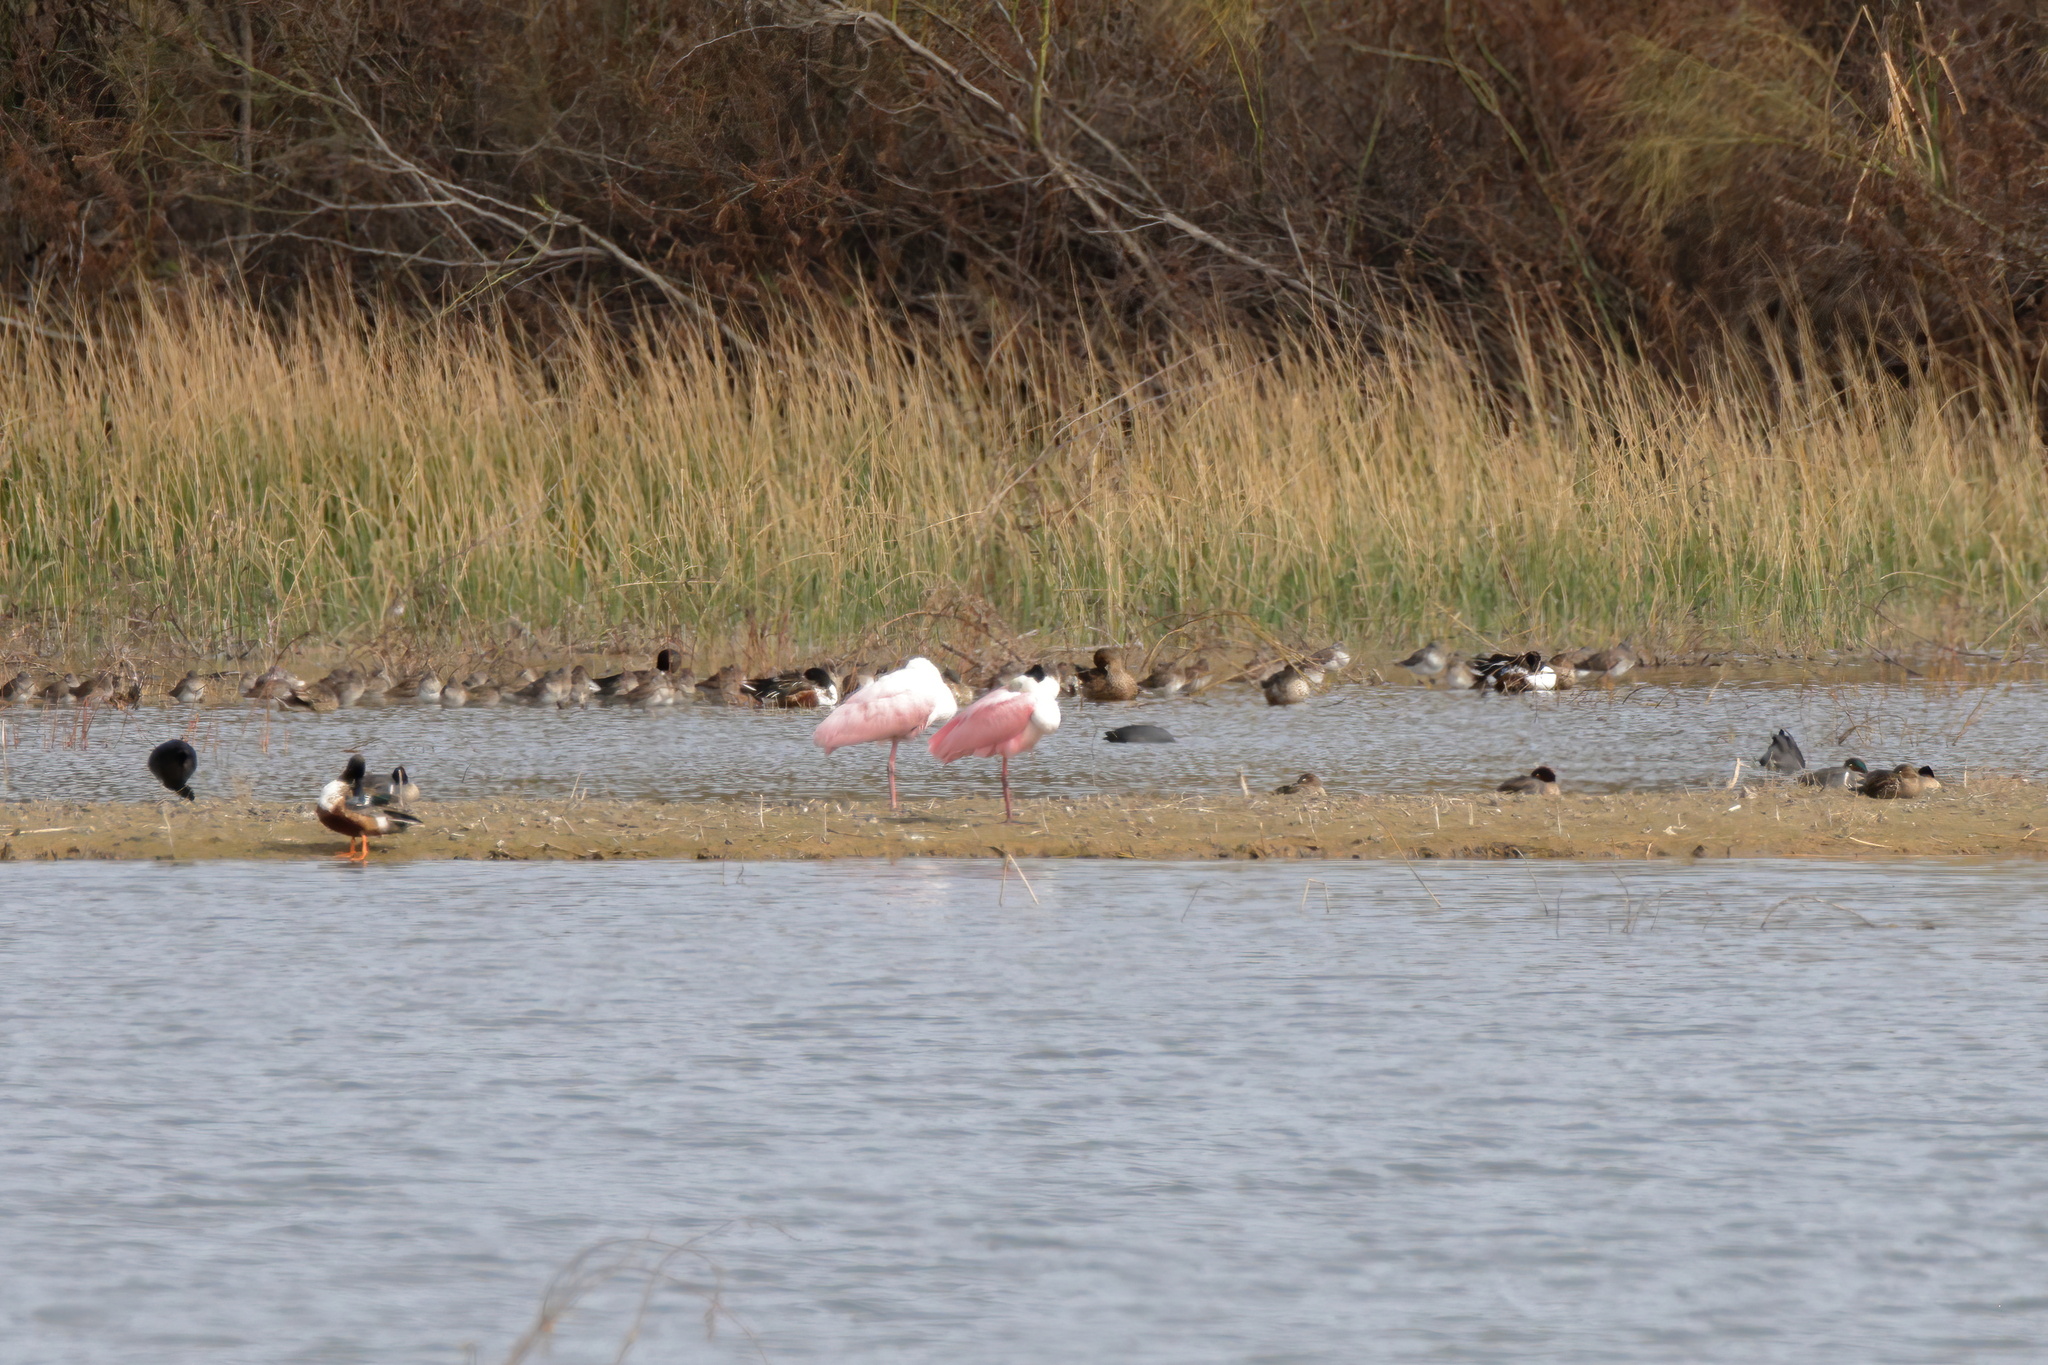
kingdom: Animalia
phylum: Chordata
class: Aves
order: Pelecaniformes
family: Threskiornithidae
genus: Platalea
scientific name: Platalea ajaja
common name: Roseate spoonbill
